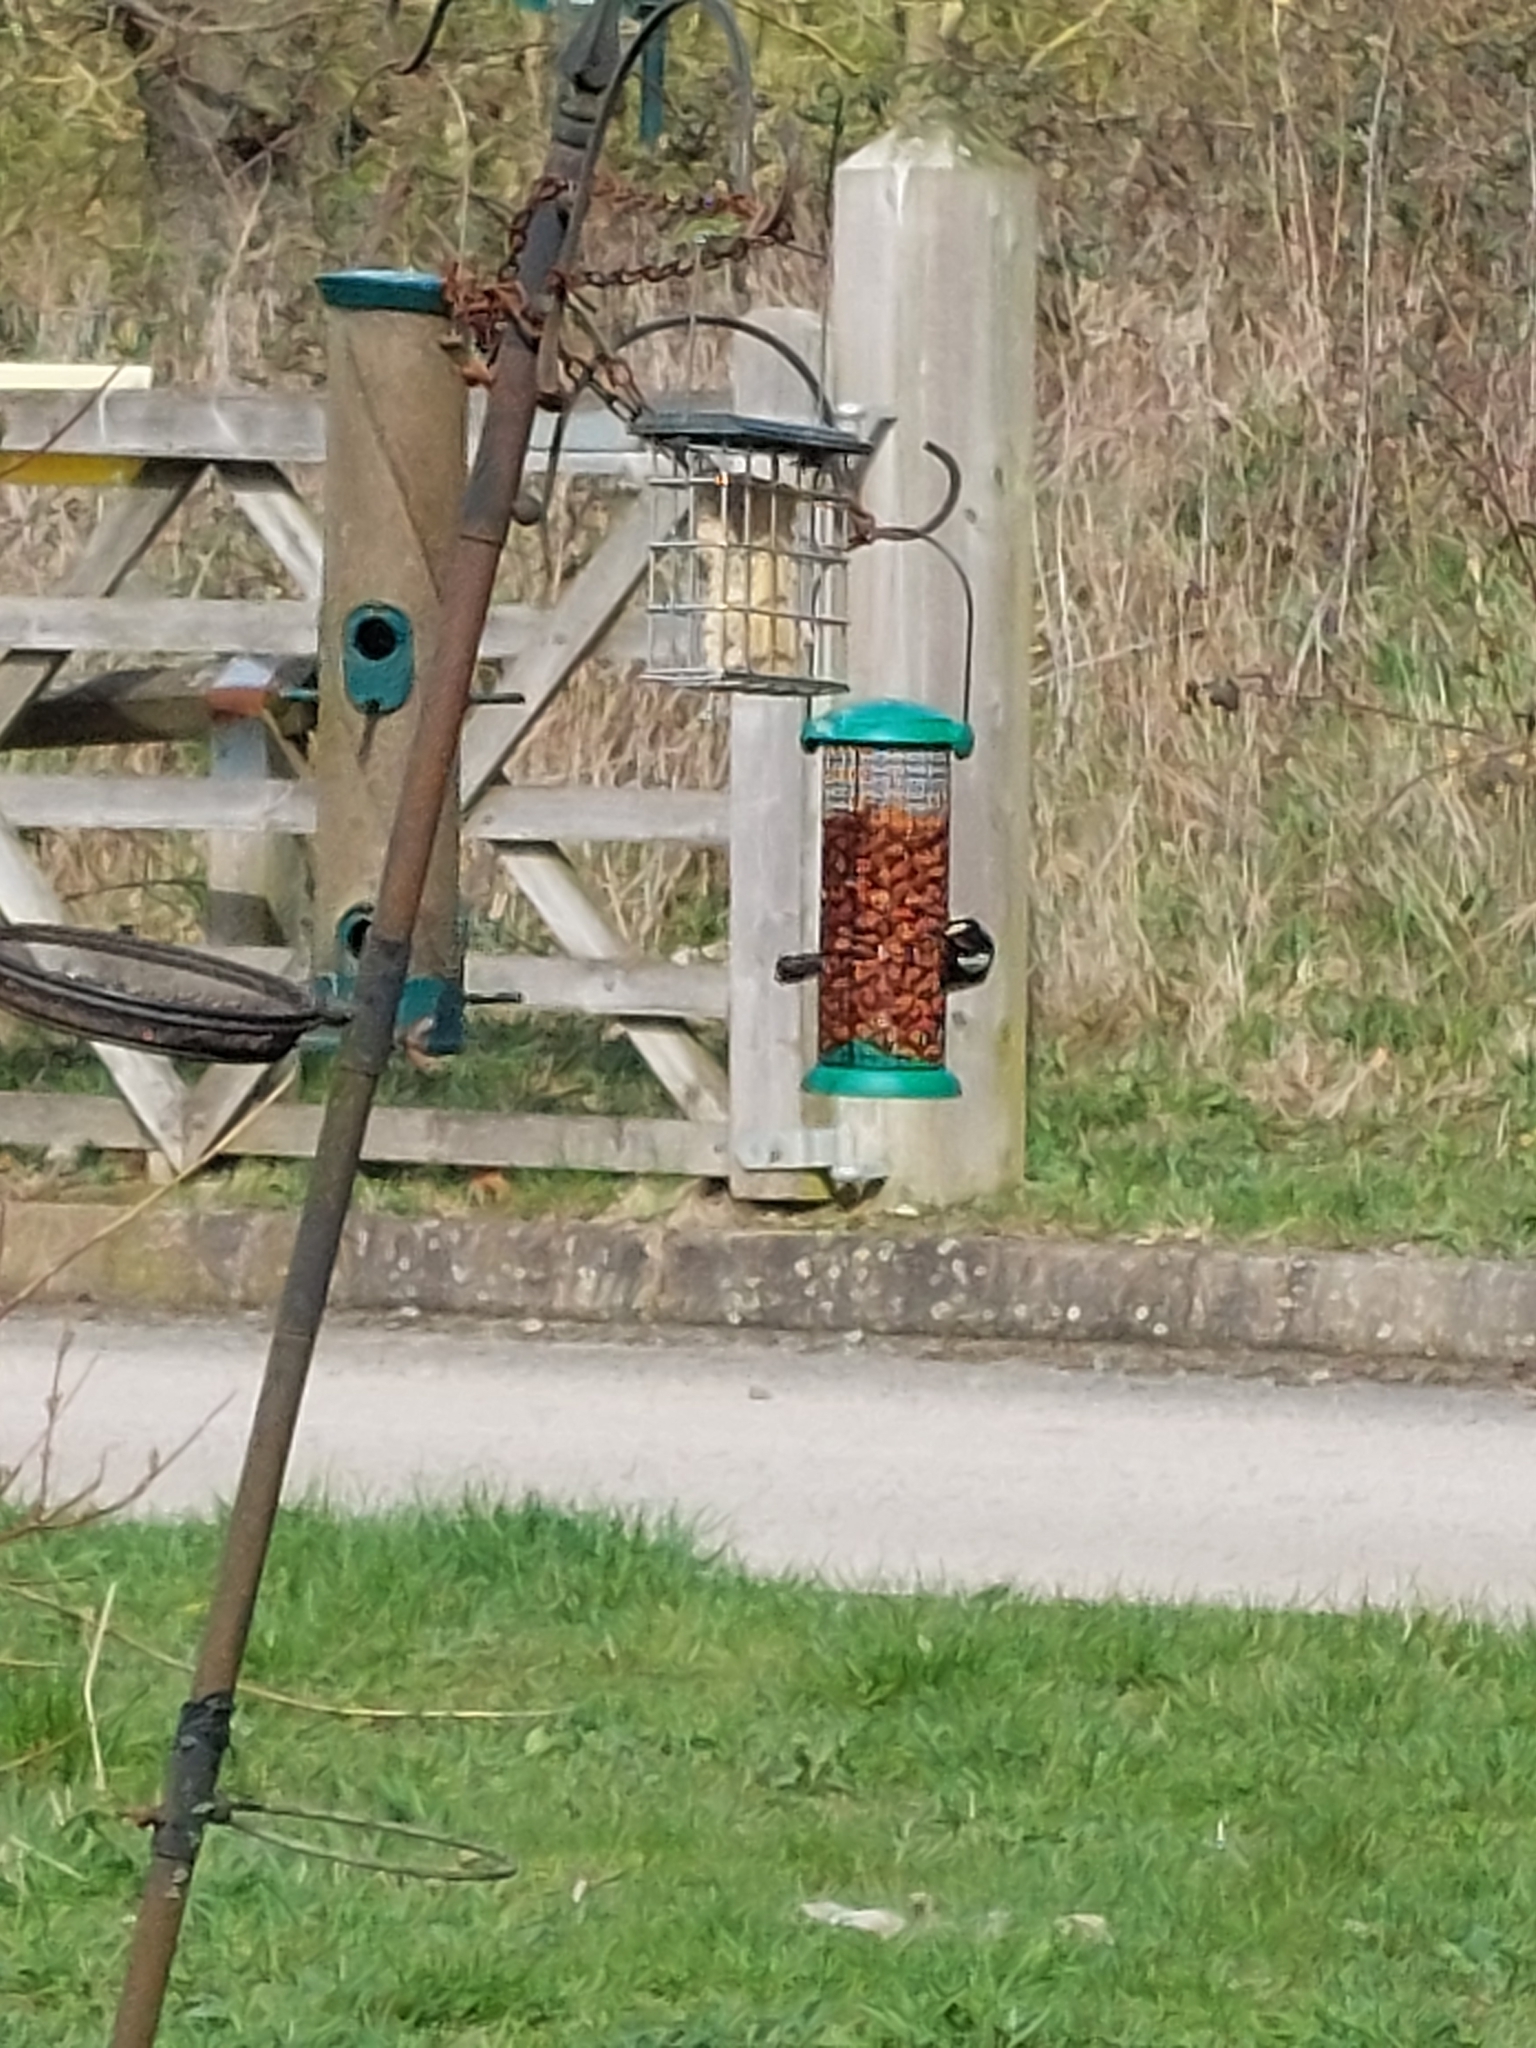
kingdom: Animalia
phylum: Chordata
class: Aves
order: Passeriformes
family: Paridae
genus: Parus
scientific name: Parus major
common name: Great tit
